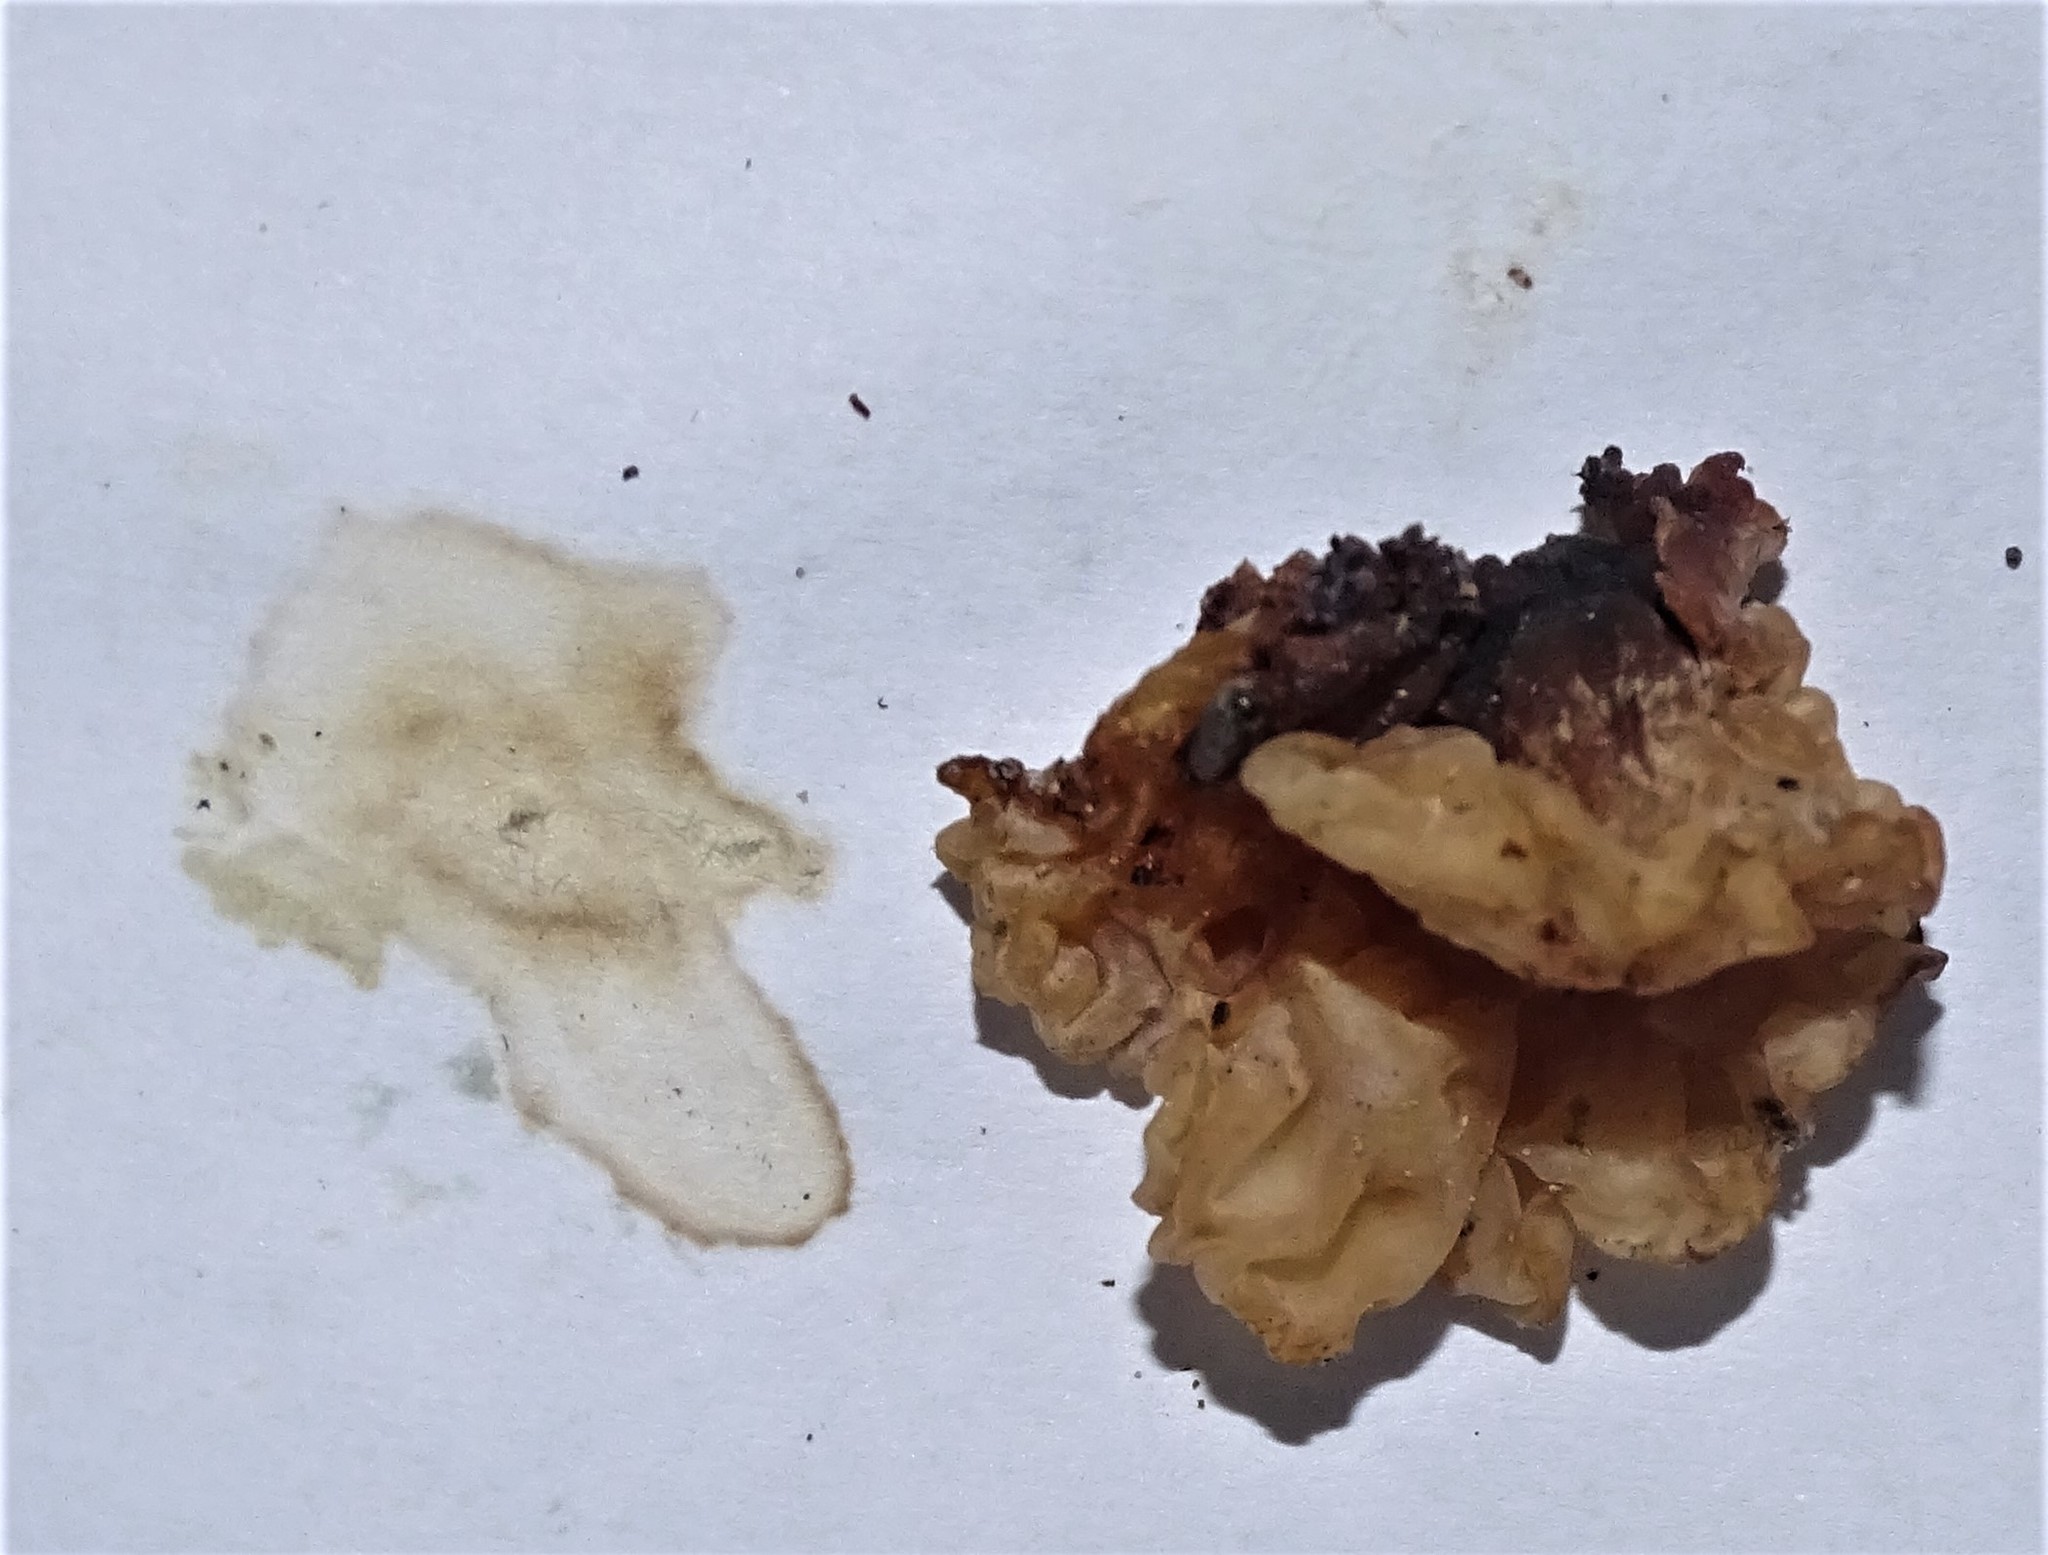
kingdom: Fungi
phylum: Basidiomycota
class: Agaricomycetes
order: Auriculariales
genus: Ductifera
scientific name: Ductifera pululahuana
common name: White jelly fungus
